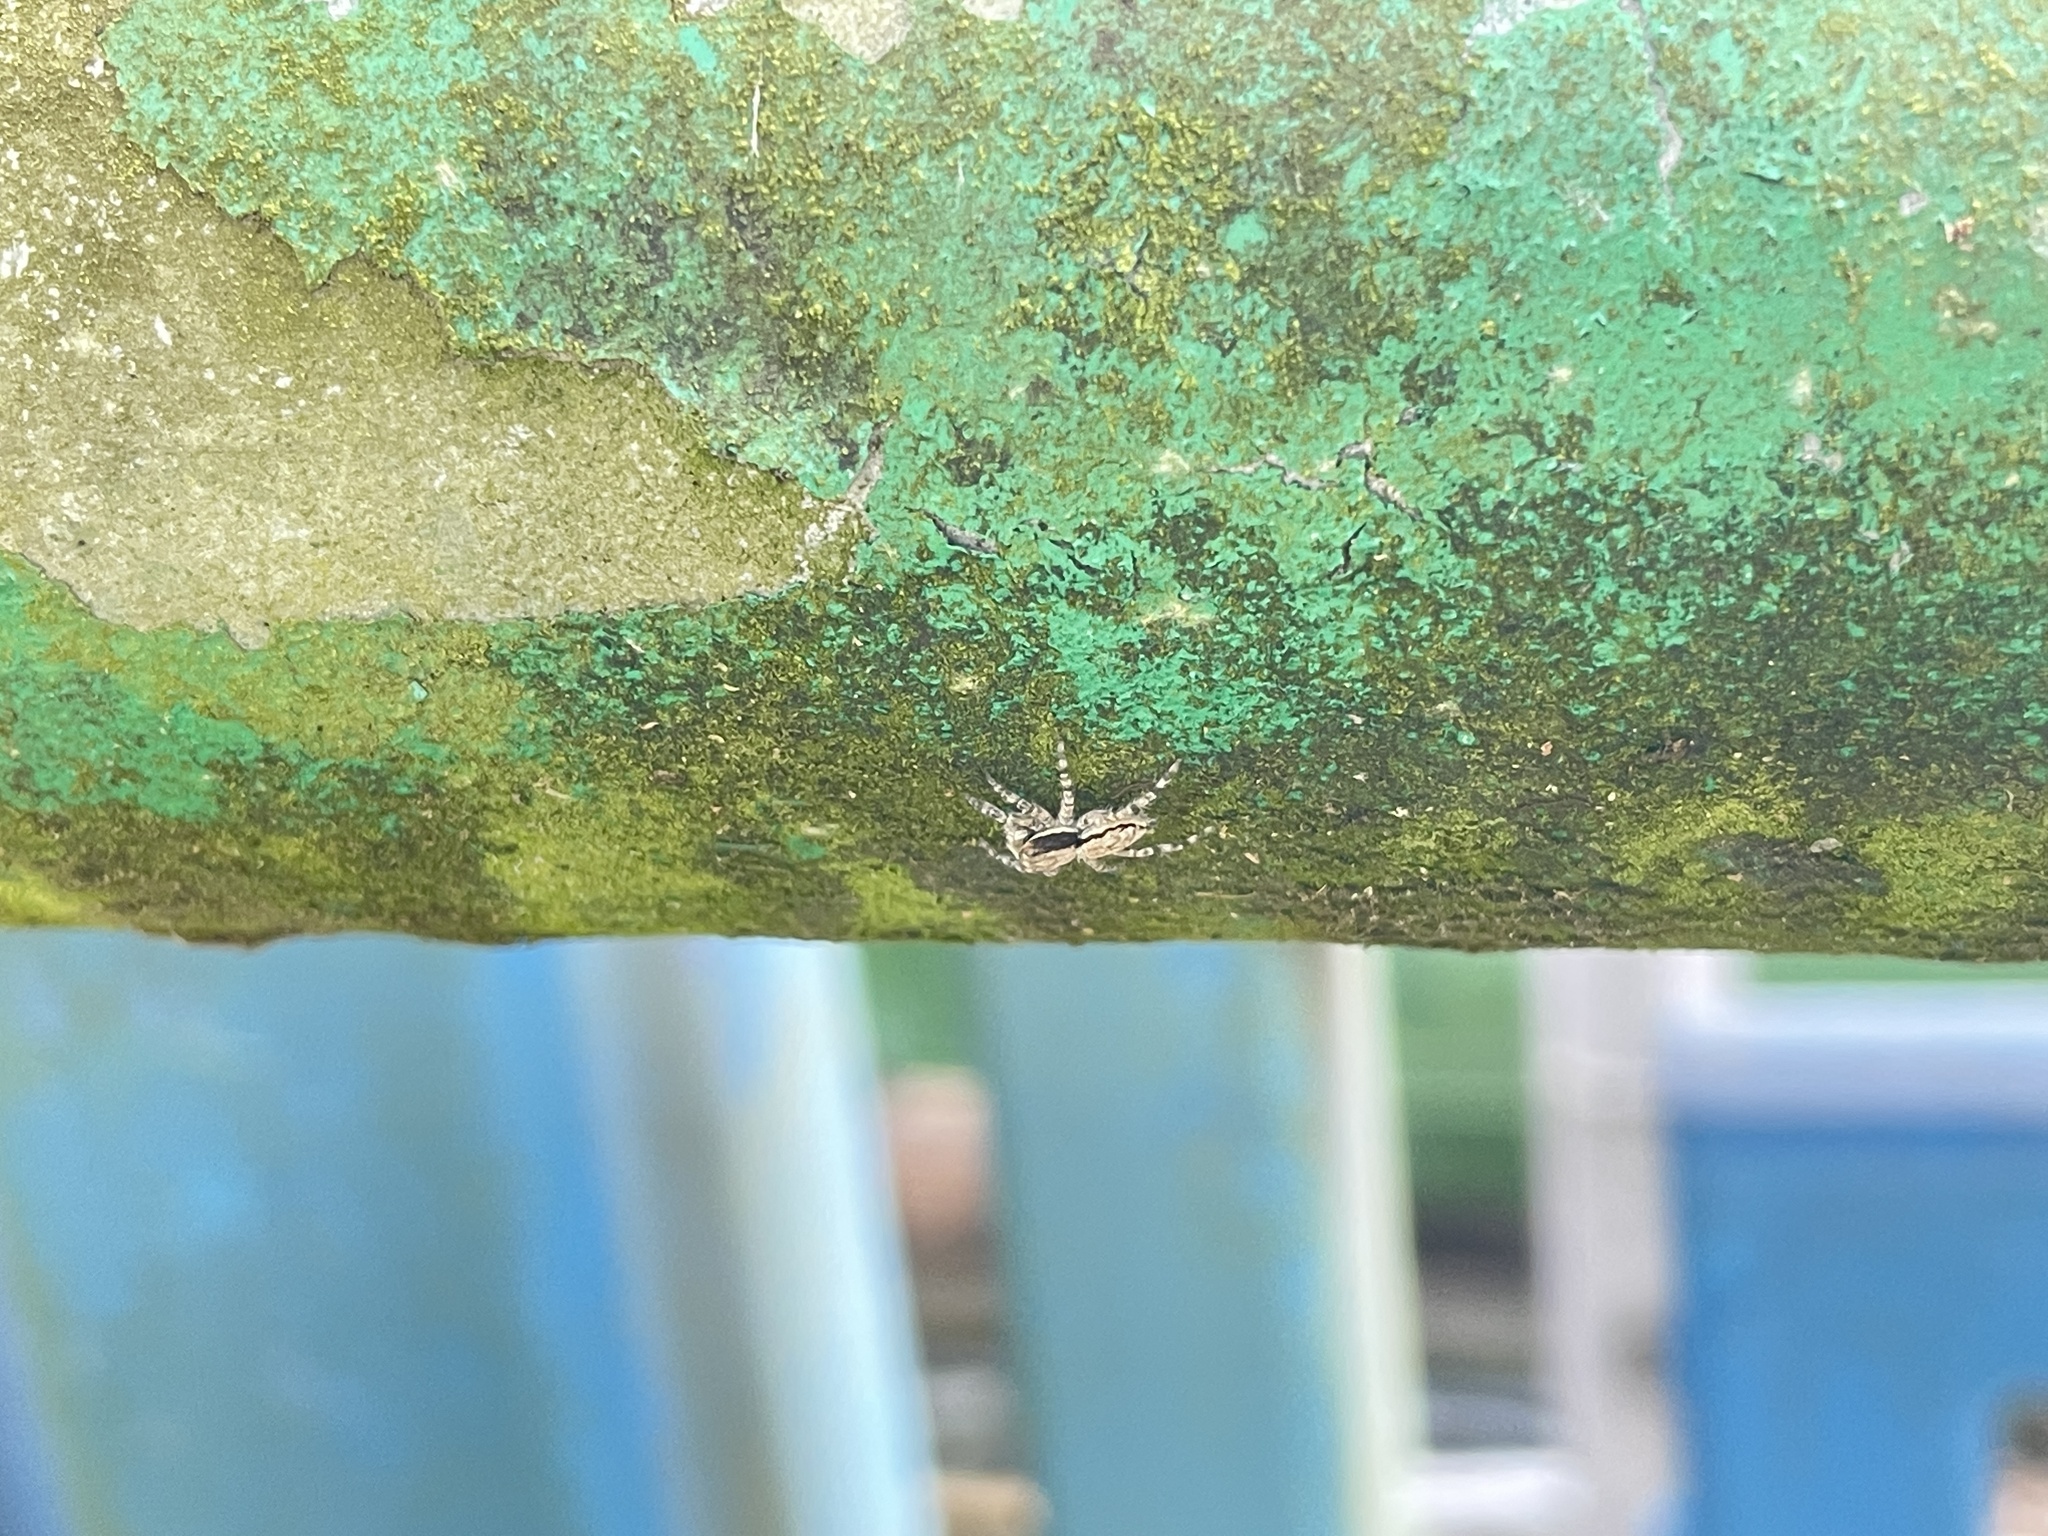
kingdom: Animalia
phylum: Arthropoda
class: Arachnida
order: Araneae
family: Salticidae
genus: Menemerus
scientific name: Menemerus bivittatus
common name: Gray wall jumper
